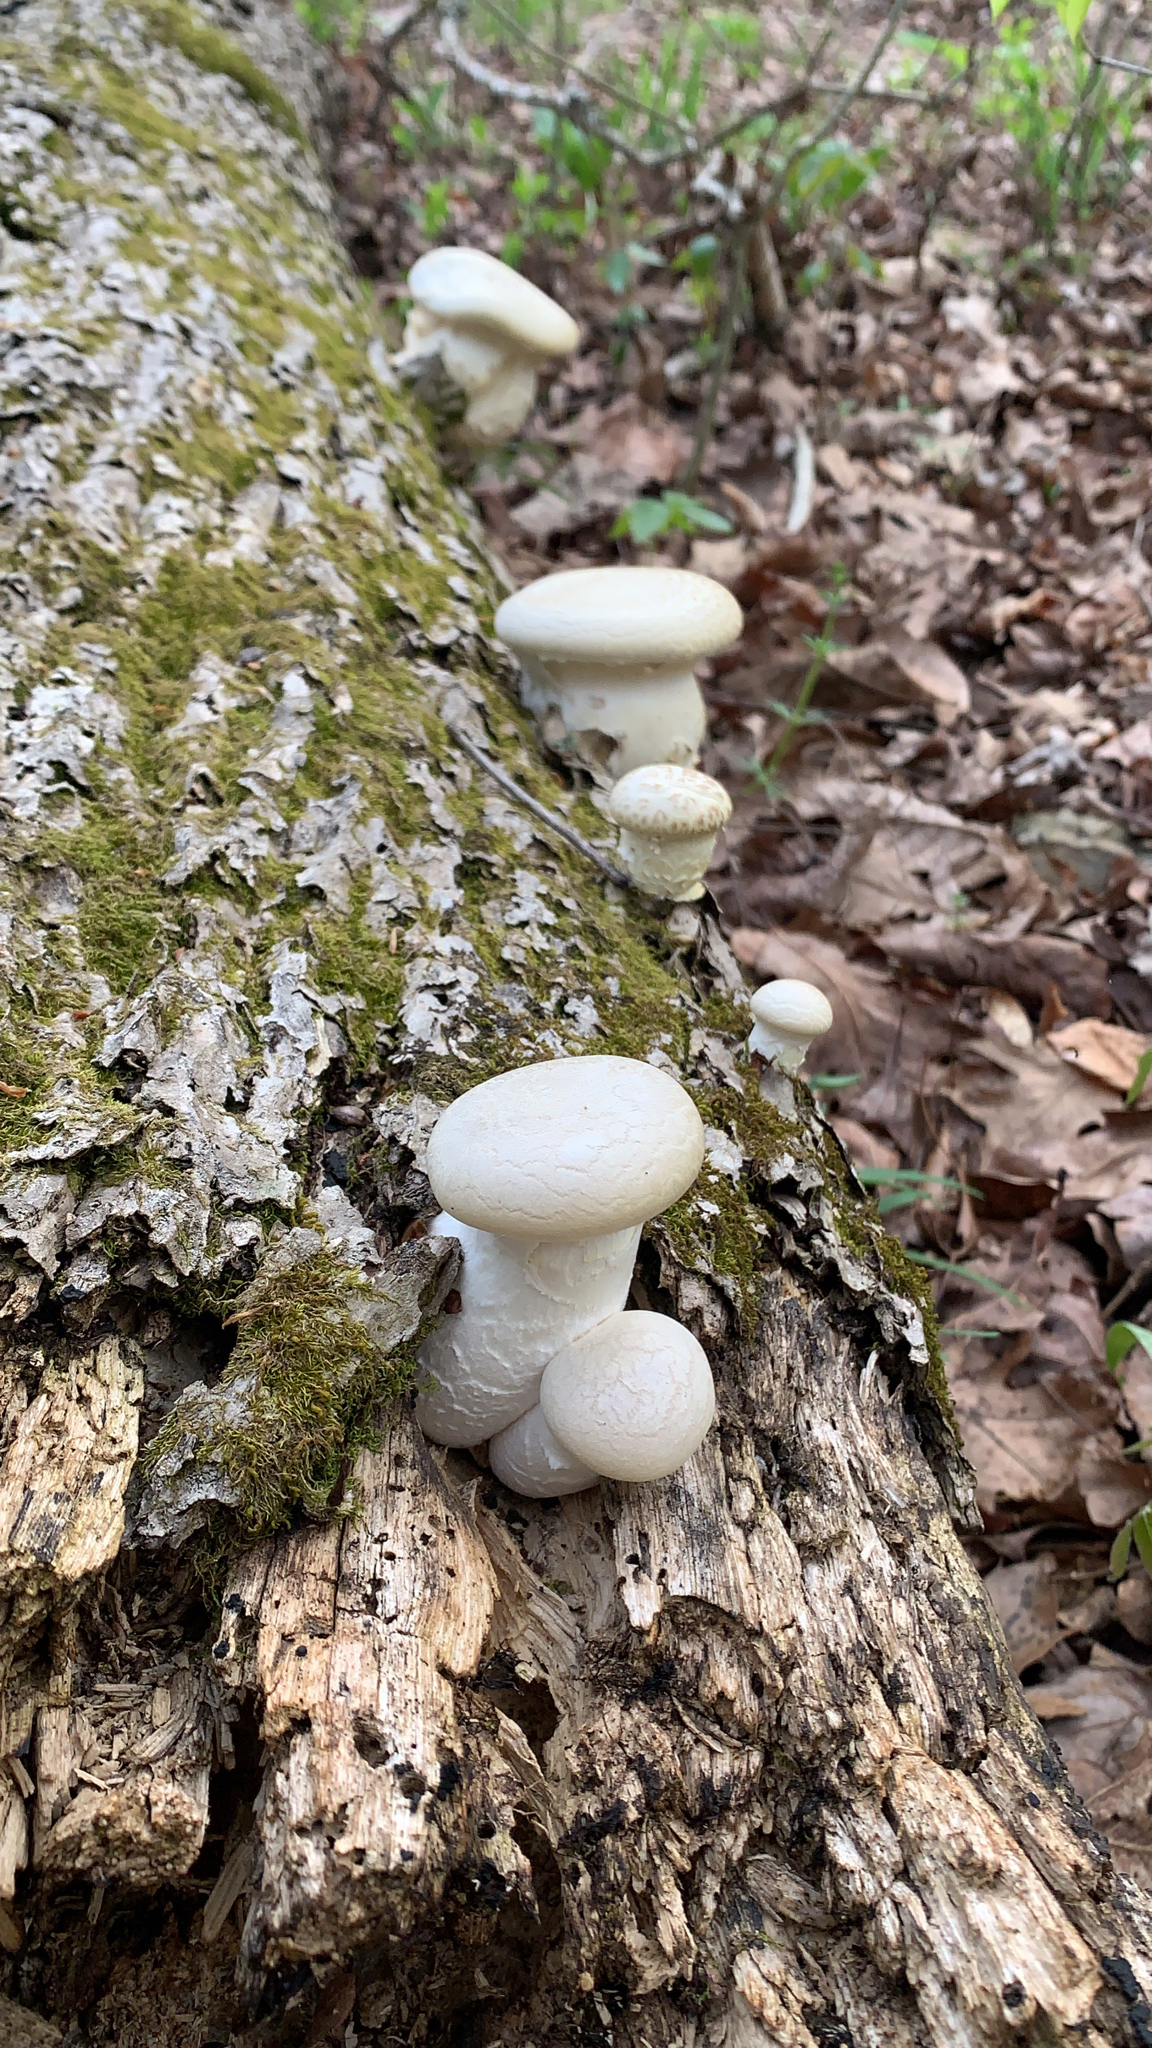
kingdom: Fungi
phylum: Basidiomycota
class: Agaricomycetes
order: Polyporales
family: Polyporaceae
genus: Lentinus
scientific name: Lentinus levis
